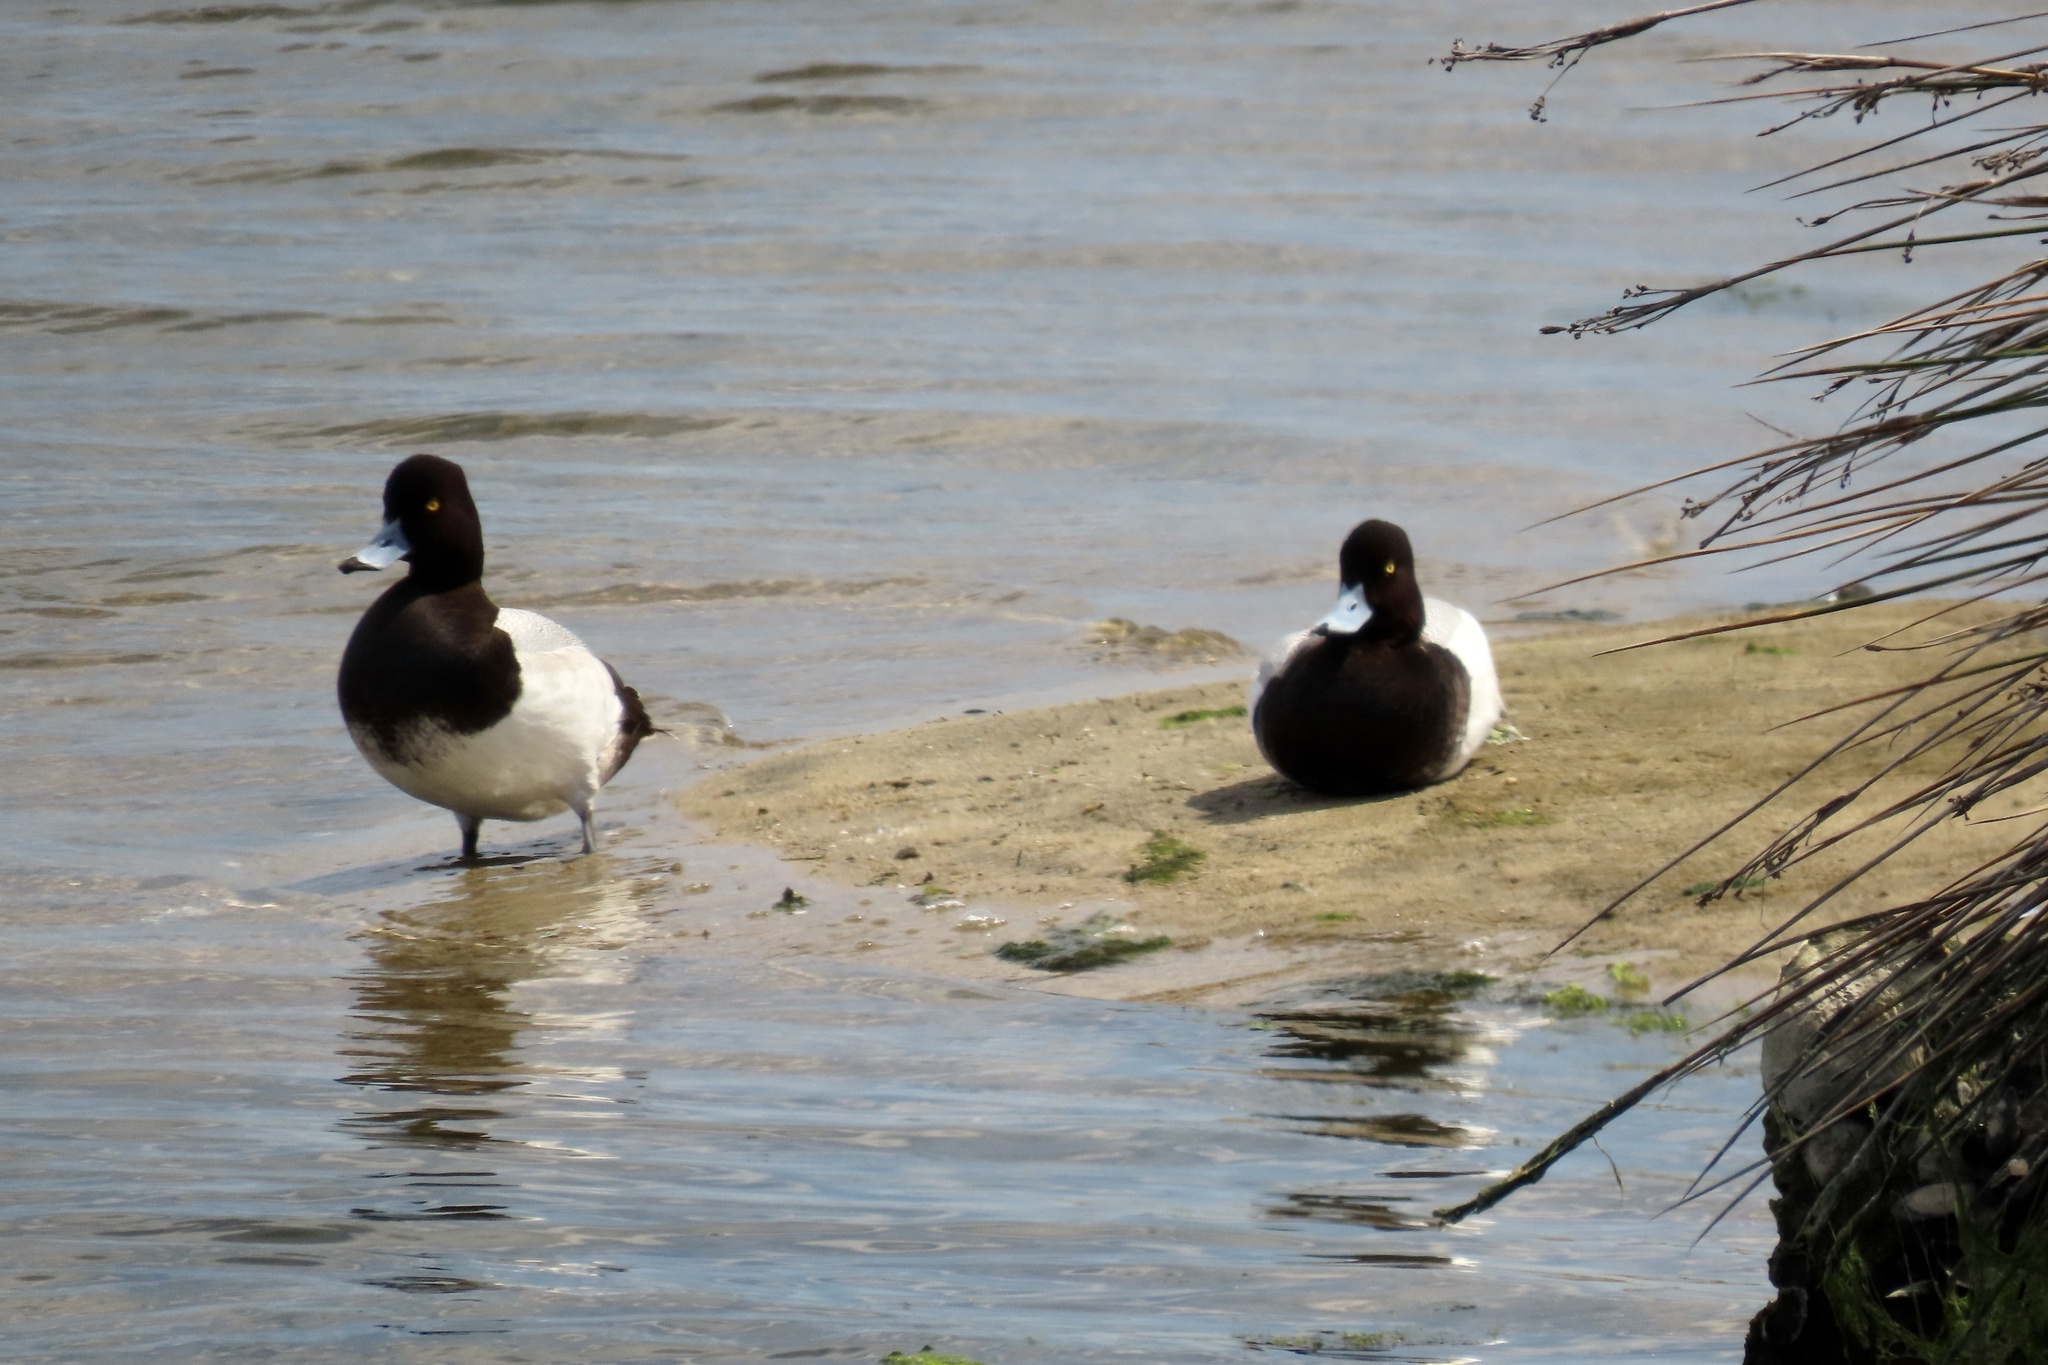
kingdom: Animalia
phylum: Chordata
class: Aves
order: Anseriformes
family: Anatidae
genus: Aythya
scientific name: Aythya affinis
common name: Lesser scaup
